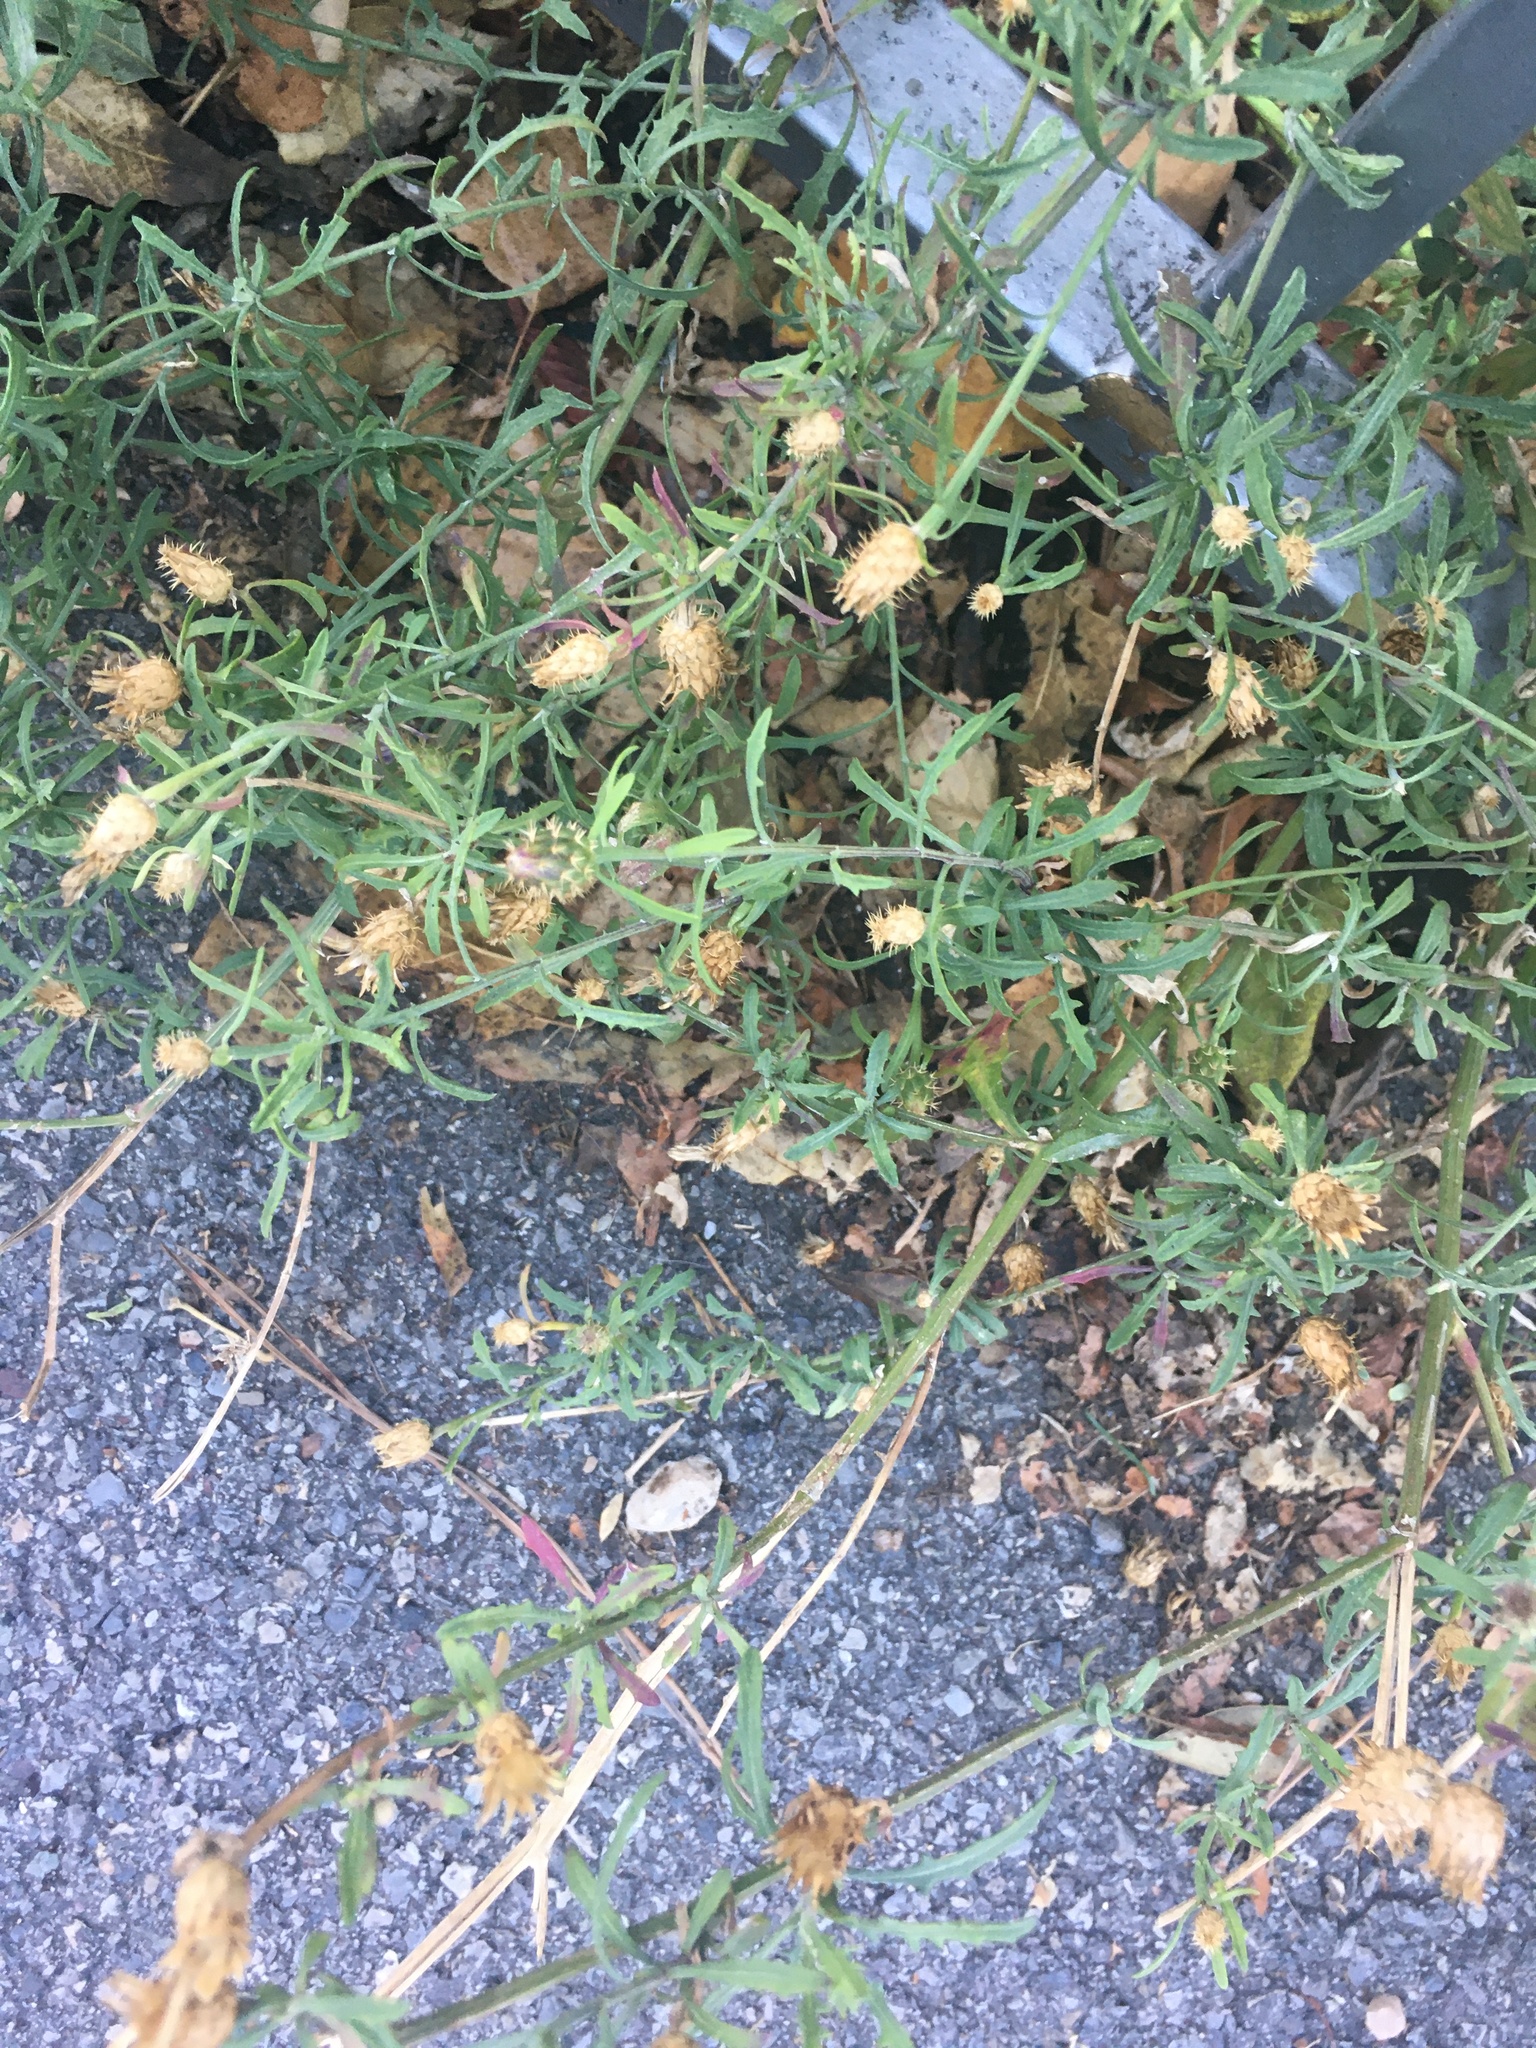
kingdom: Plantae
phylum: Tracheophyta
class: Magnoliopsida
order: Asterales
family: Asteraceae
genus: Centaurea
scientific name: Centaurea aspera
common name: Rough star-thistle
